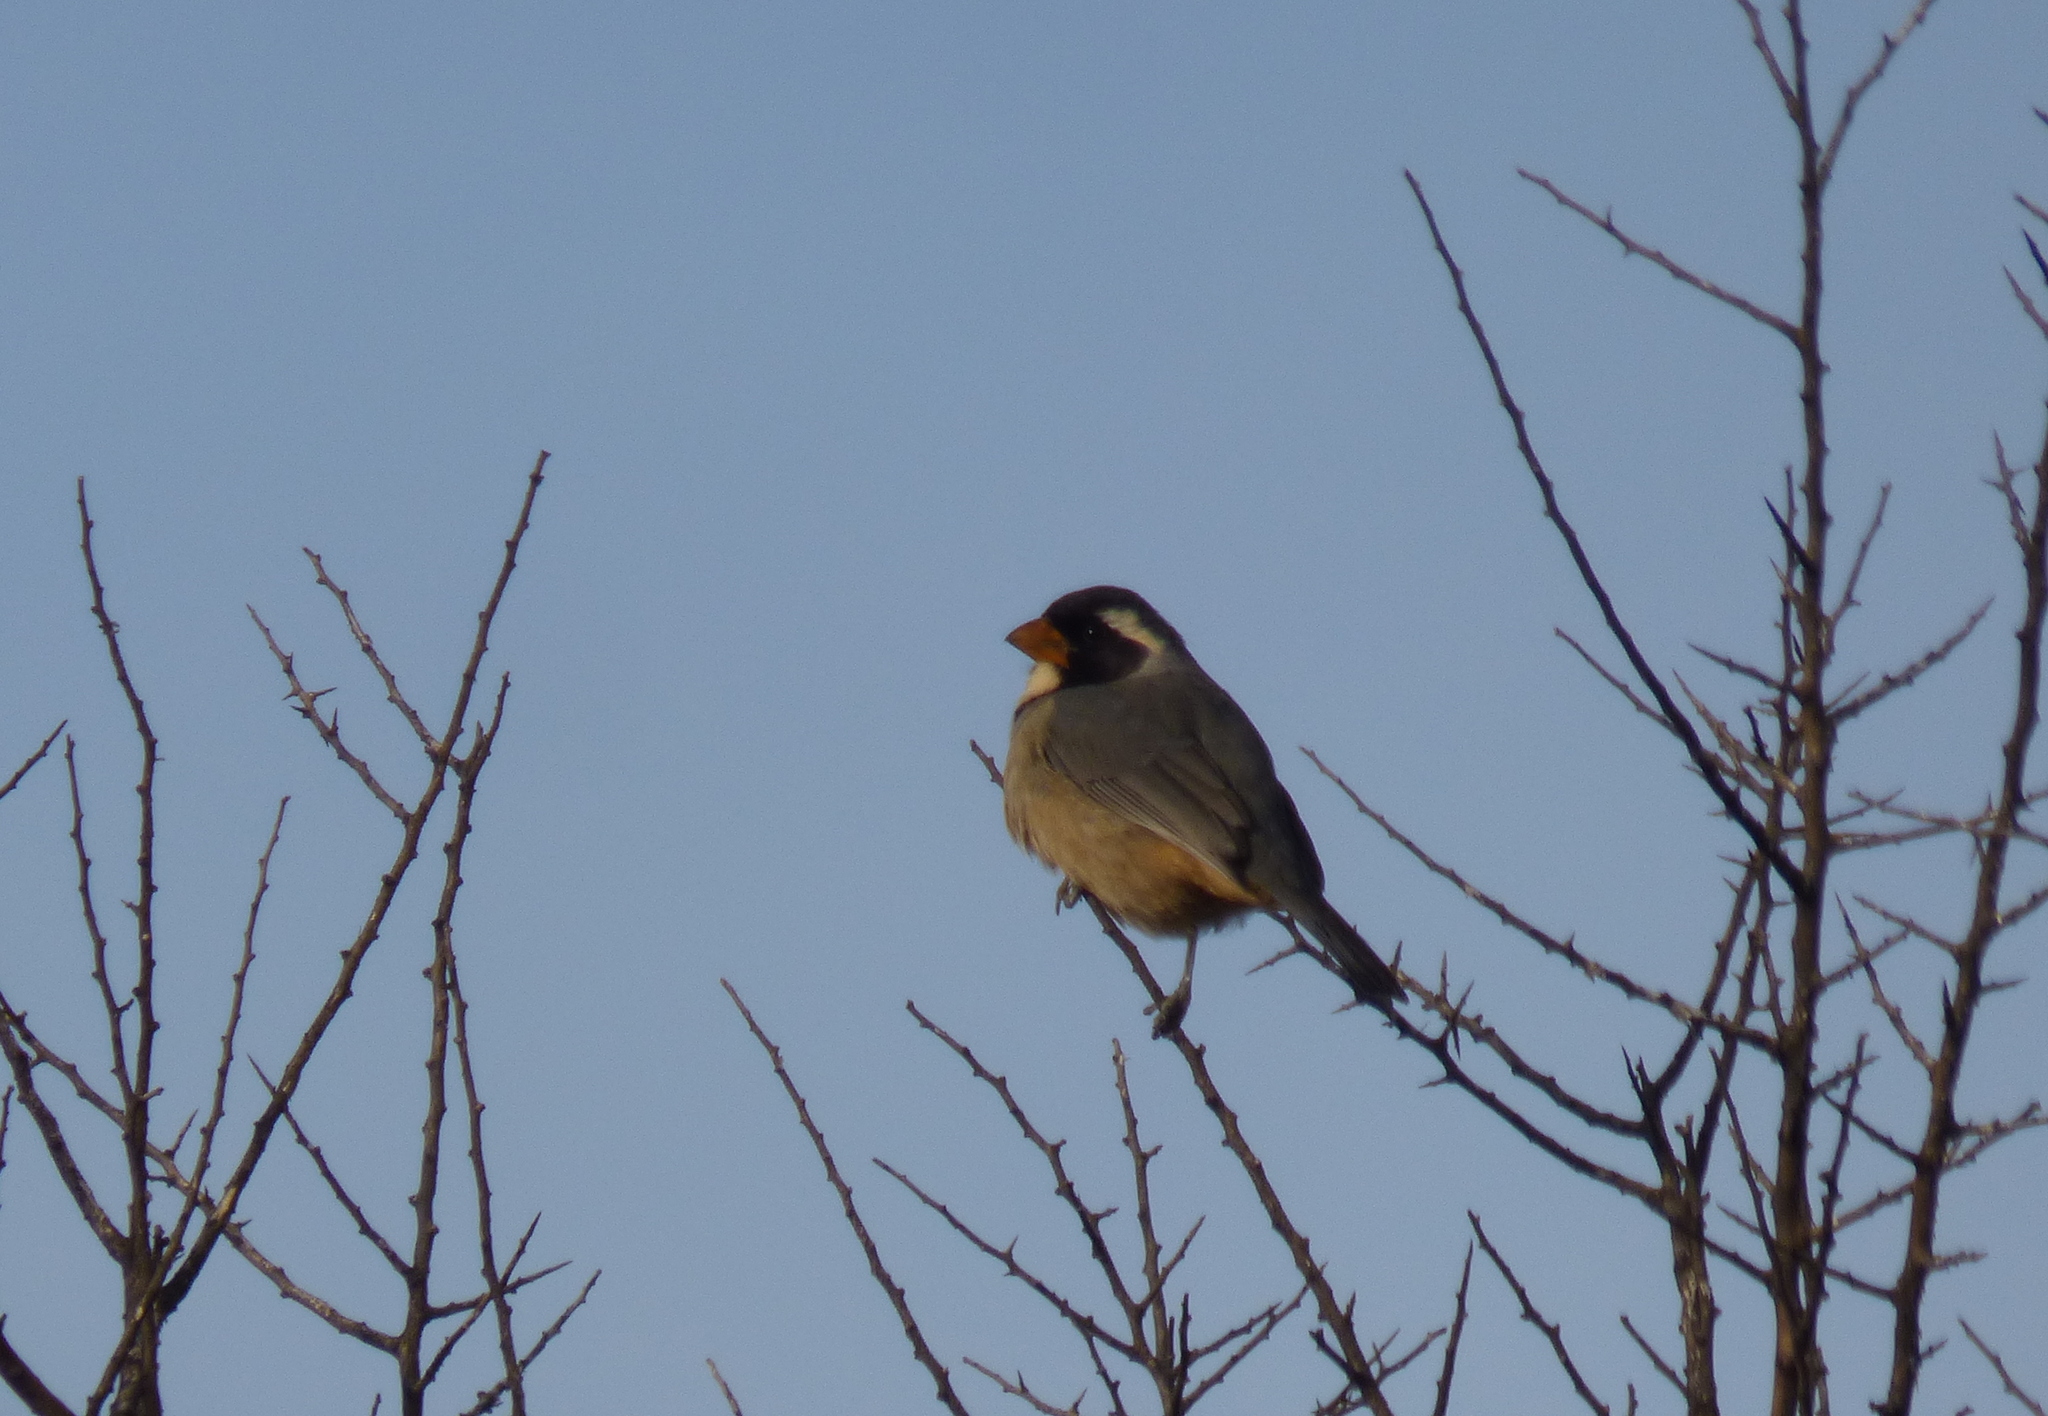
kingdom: Animalia
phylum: Chordata
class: Aves
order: Passeriformes
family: Thraupidae
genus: Saltator
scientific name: Saltator aurantiirostris
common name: Golden-billed saltator
